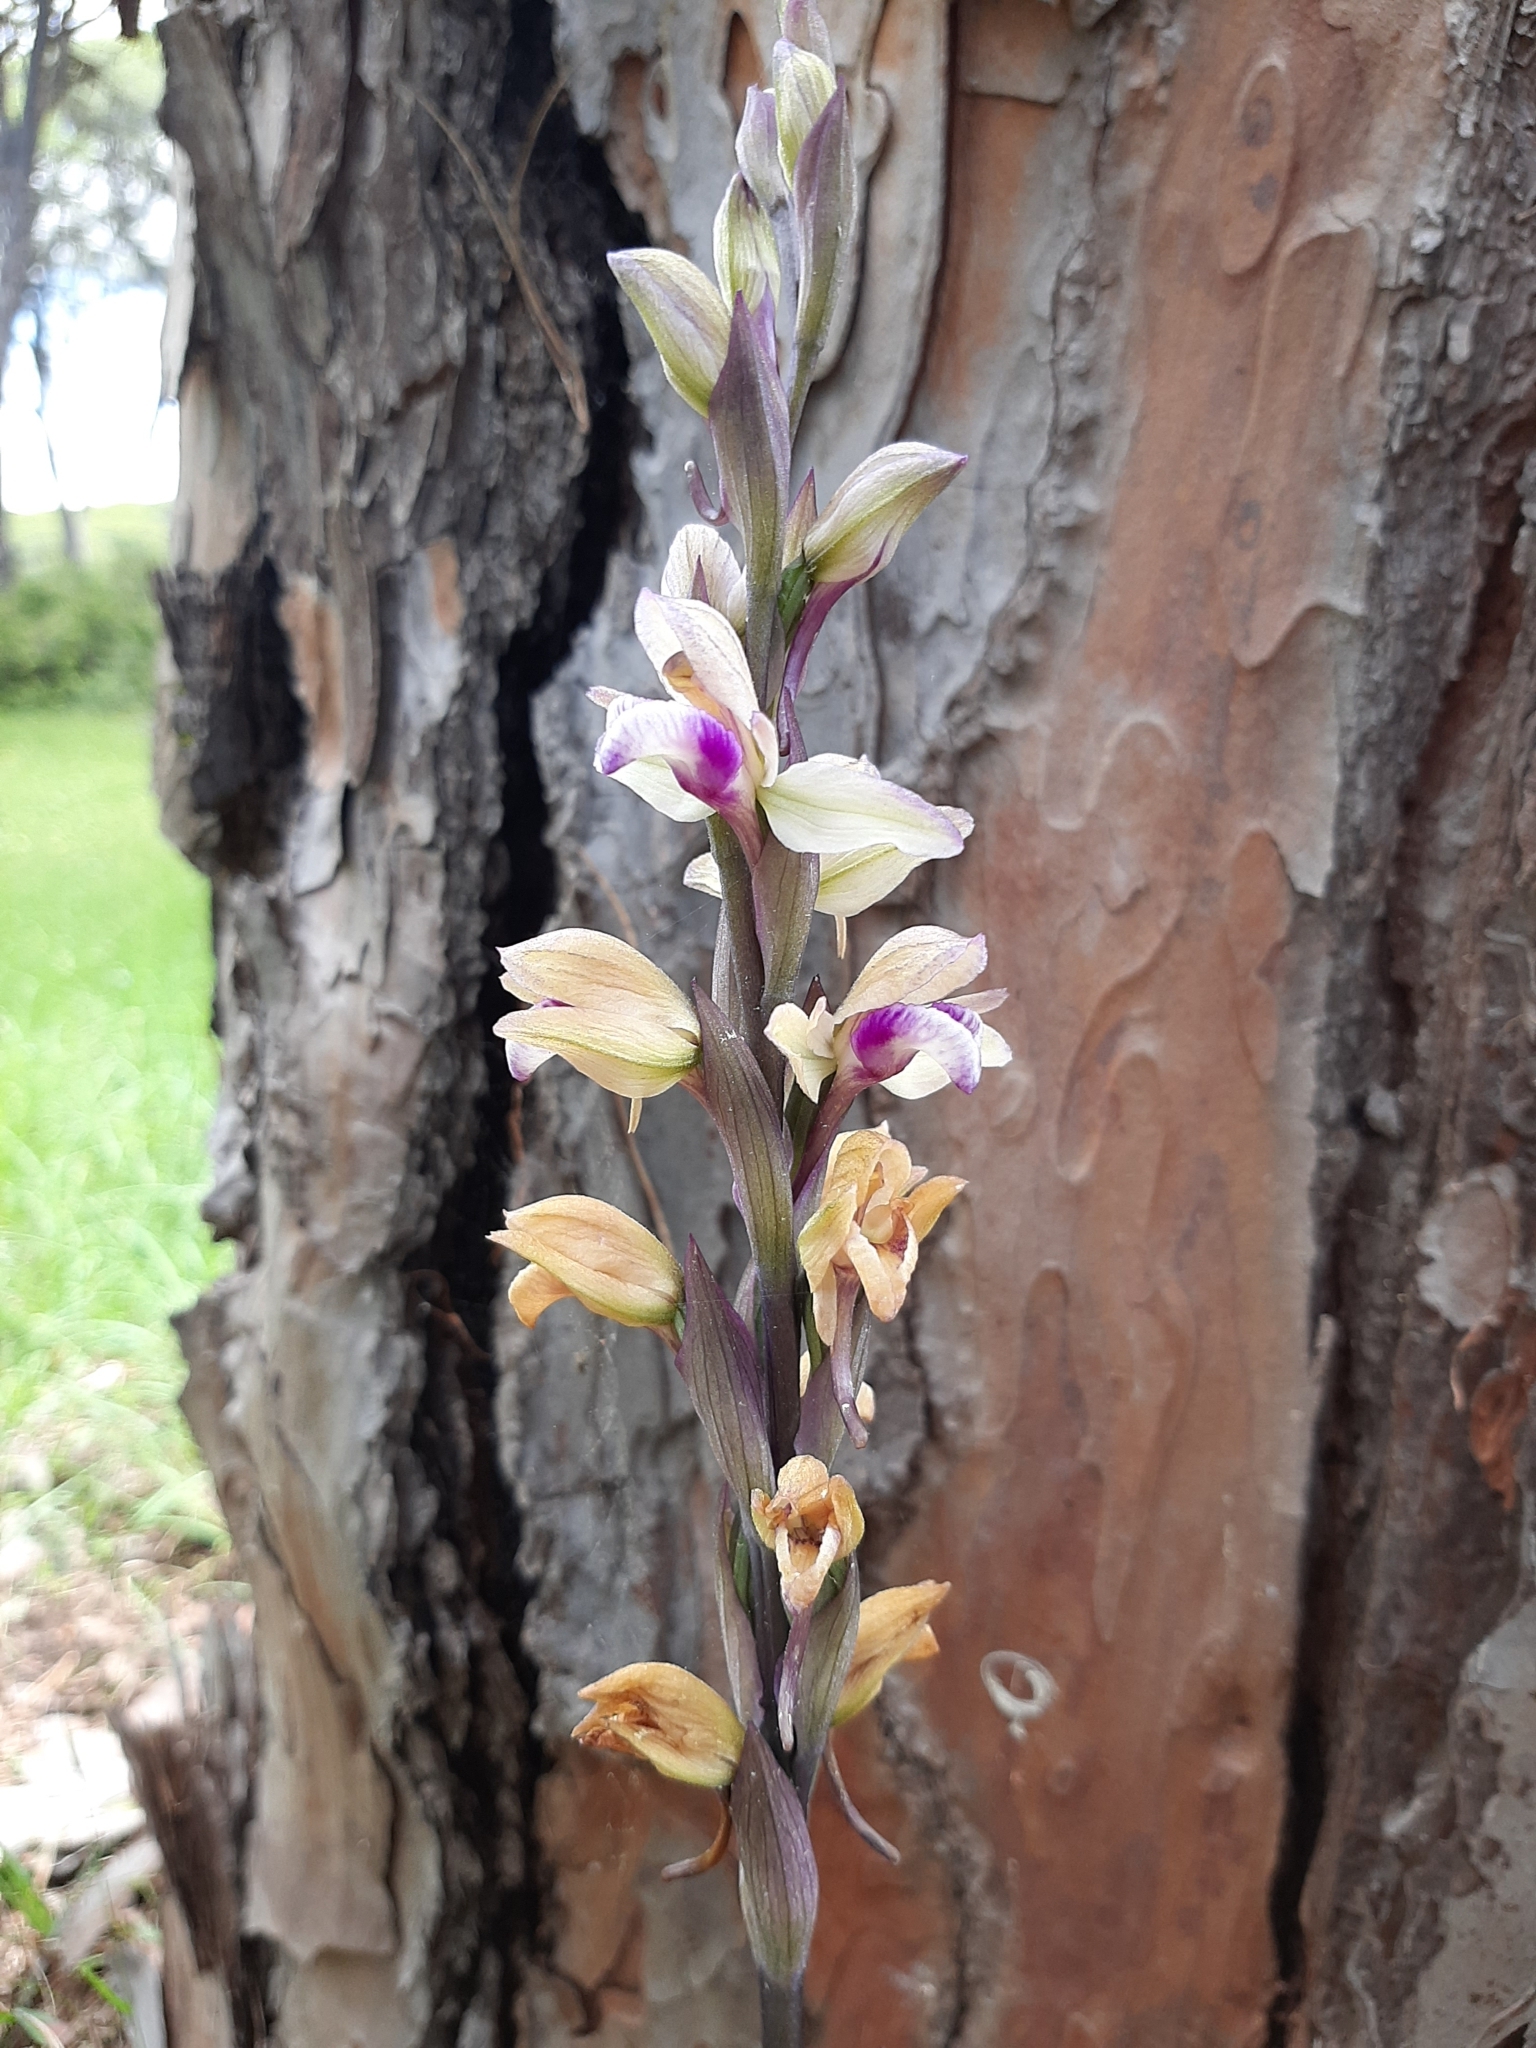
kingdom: Plantae
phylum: Tracheophyta
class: Liliopsida
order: Asparagales
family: Orchidaceae
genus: Limodorum
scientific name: Limodorum abortivum
